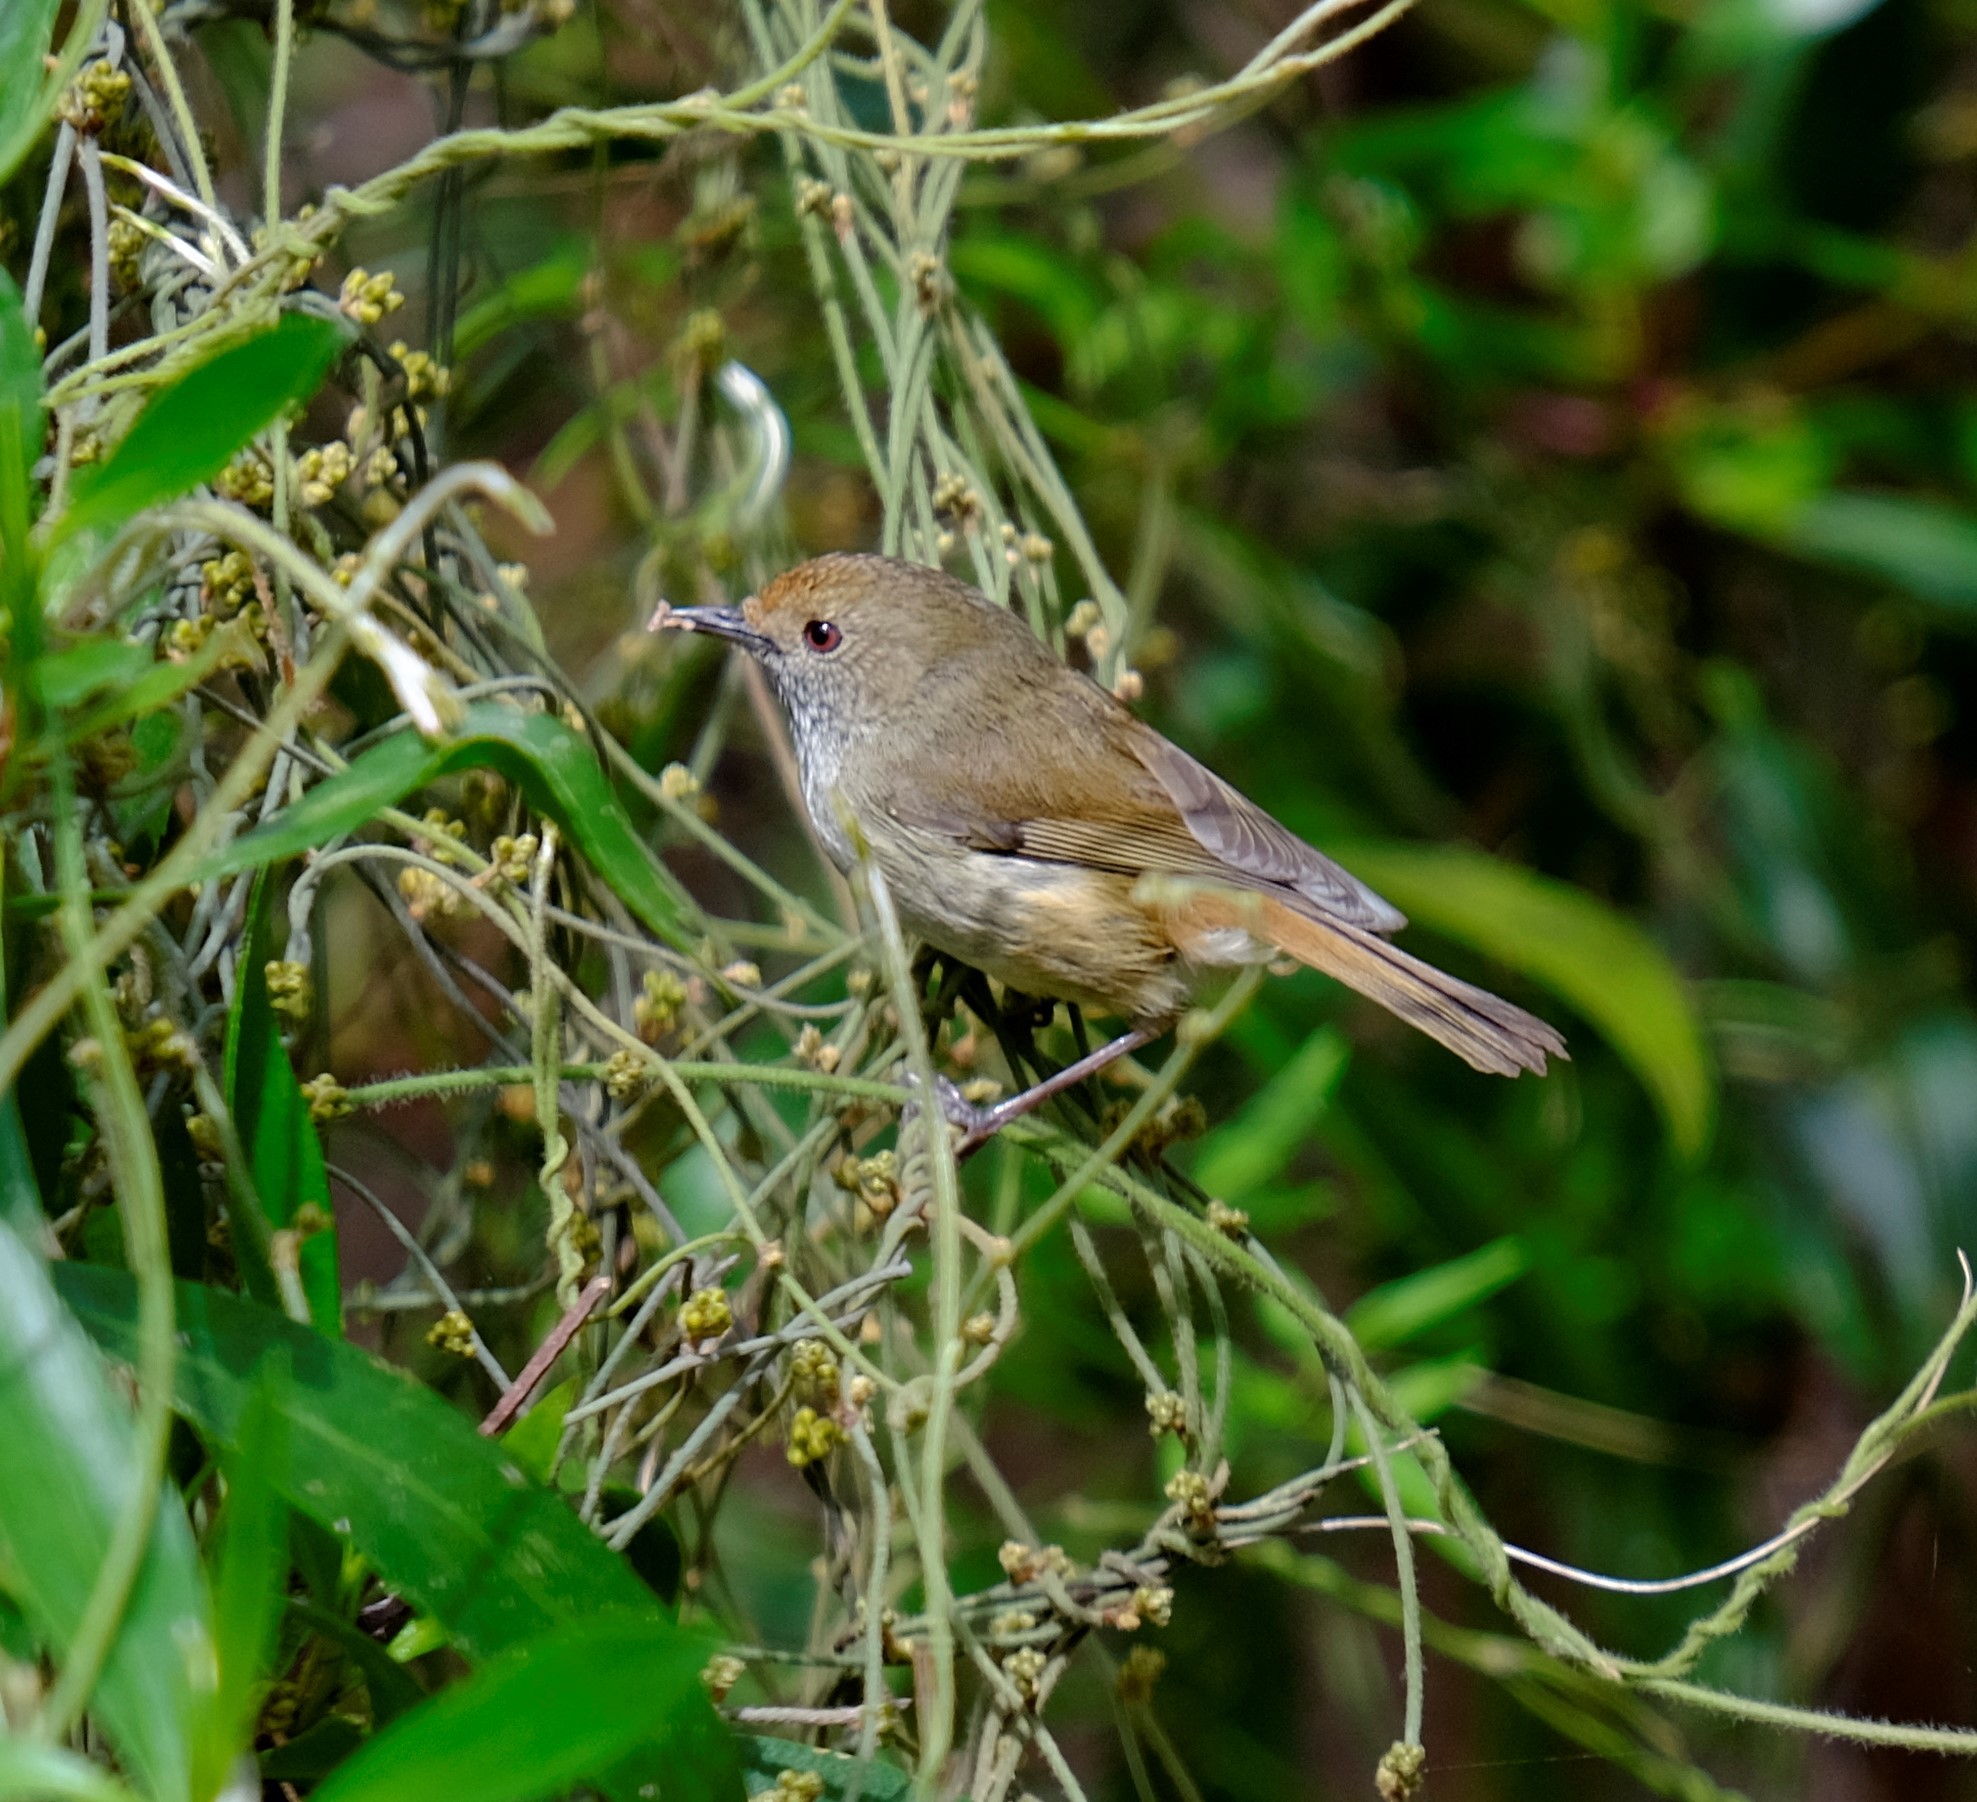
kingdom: Animalia
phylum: Chordata
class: Aves
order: Passeriformes
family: Acanthizidae
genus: Acanthiza
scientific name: Acanthiza pusilla
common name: Brown thornbill
